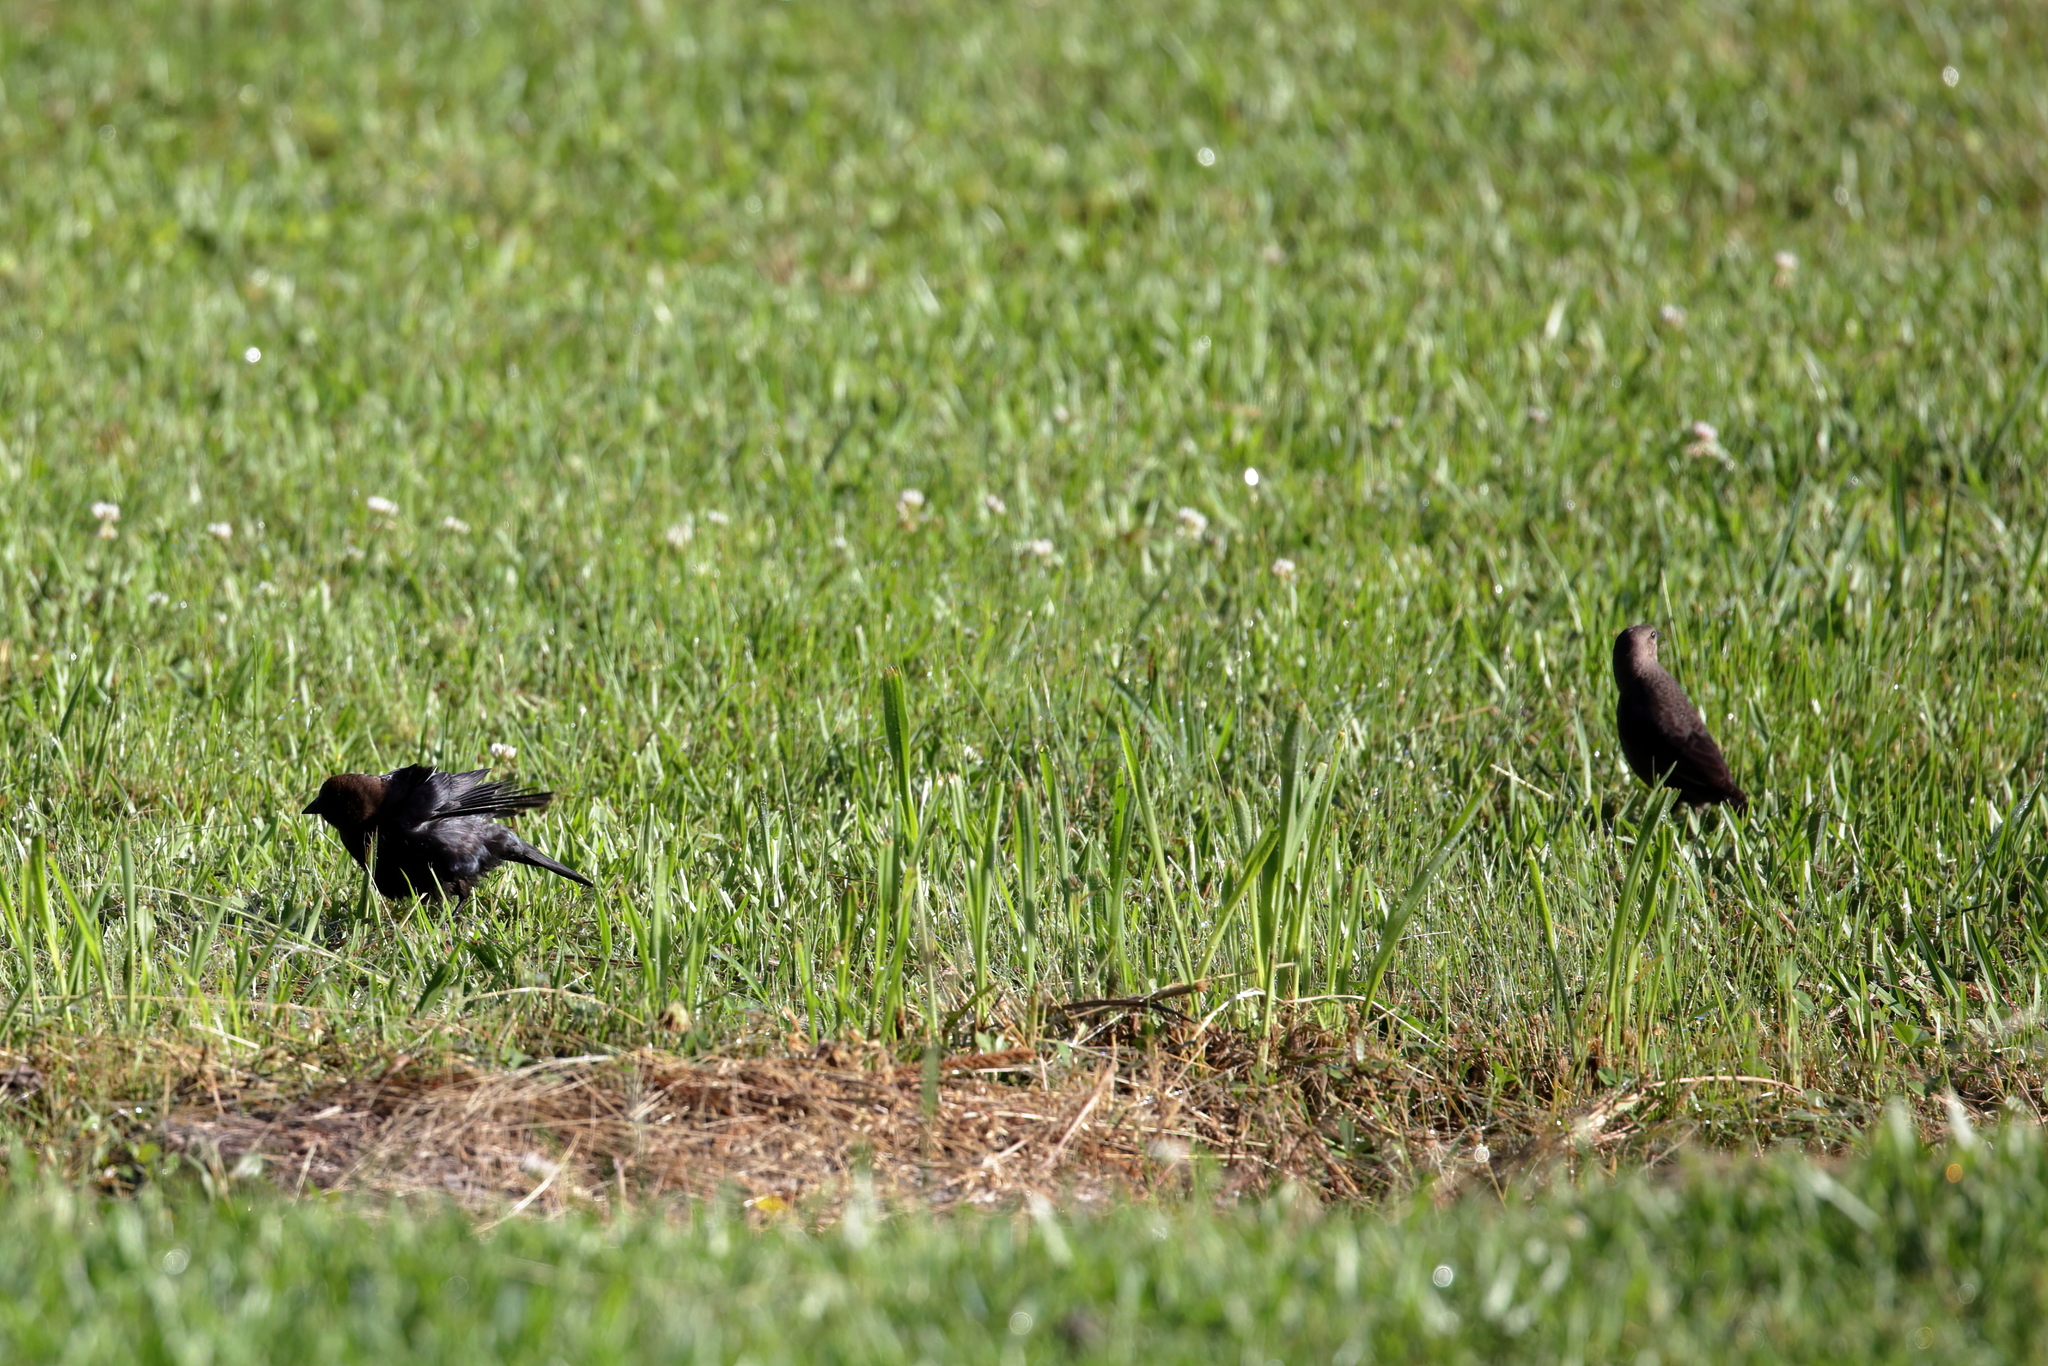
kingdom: Animalia
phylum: Chordata
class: Aves
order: Passeriformes
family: Icteridae
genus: Molothrus
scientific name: Molothrus ater
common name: Brown-headed cowbird
